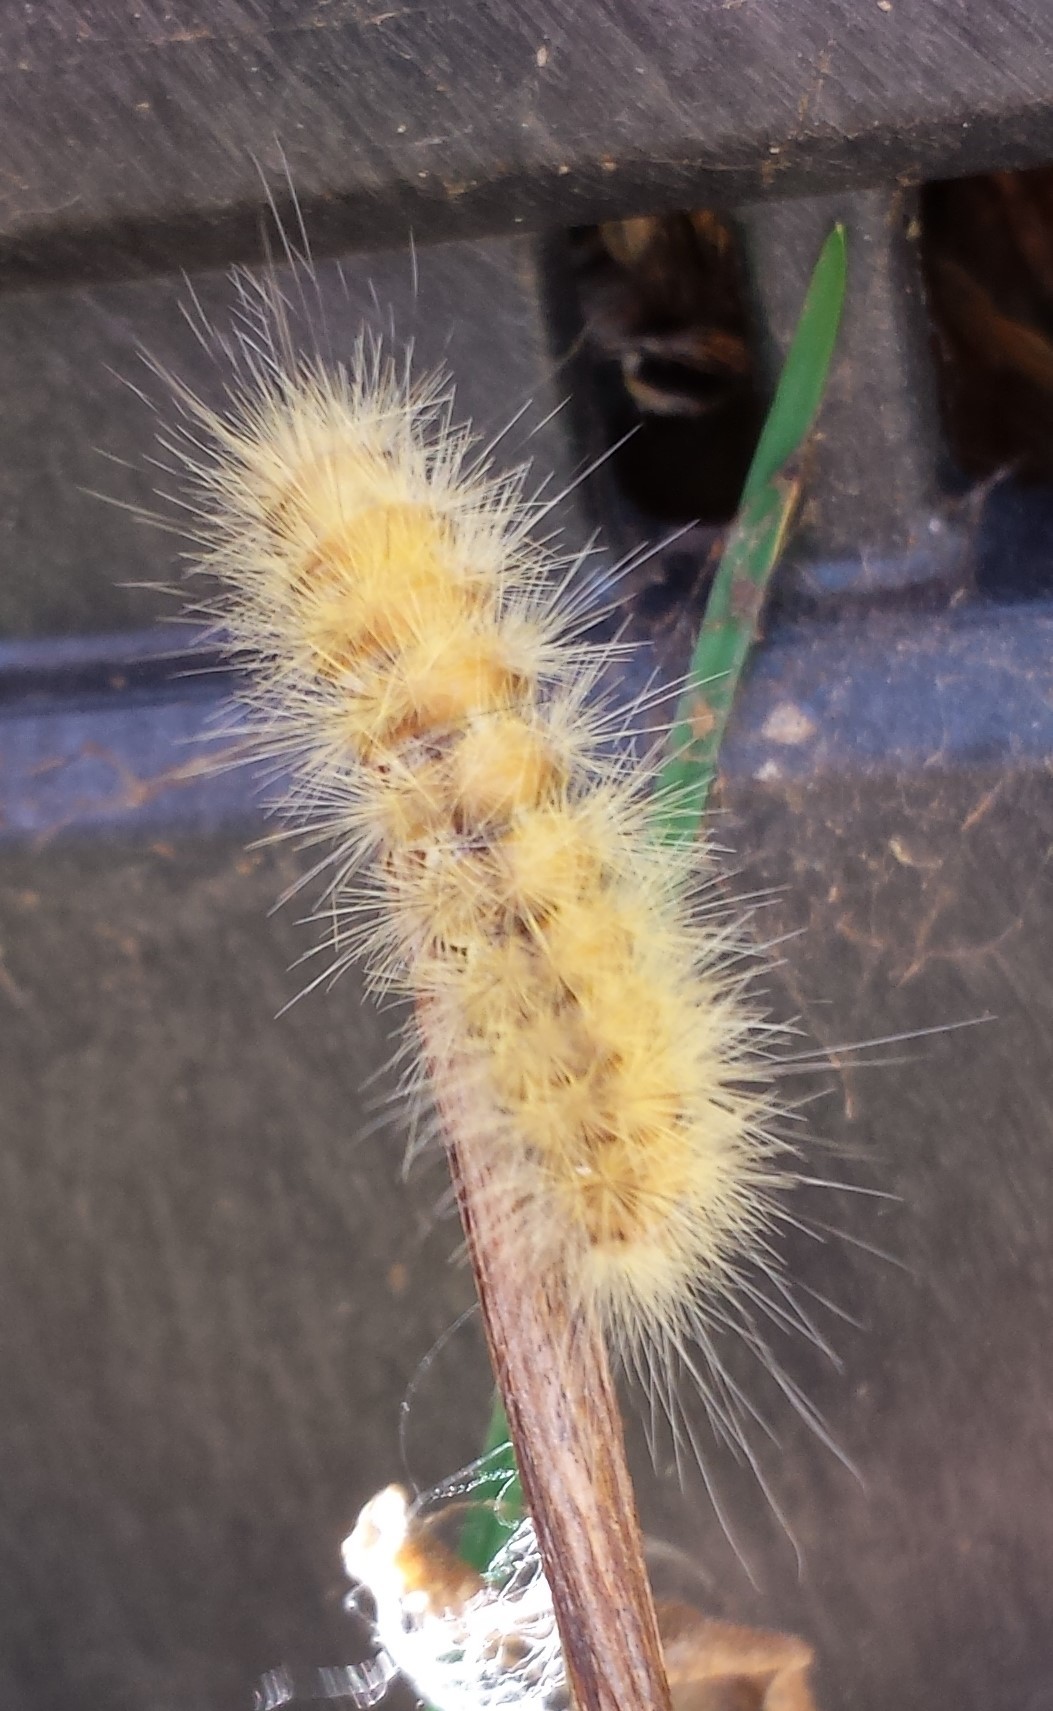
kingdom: Animalia
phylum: Arthropoda
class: Insecta
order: Lepidoptera
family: Erebidae
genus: Spilosoma
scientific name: Spilosoma virginica
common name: Virginia tiger moth
